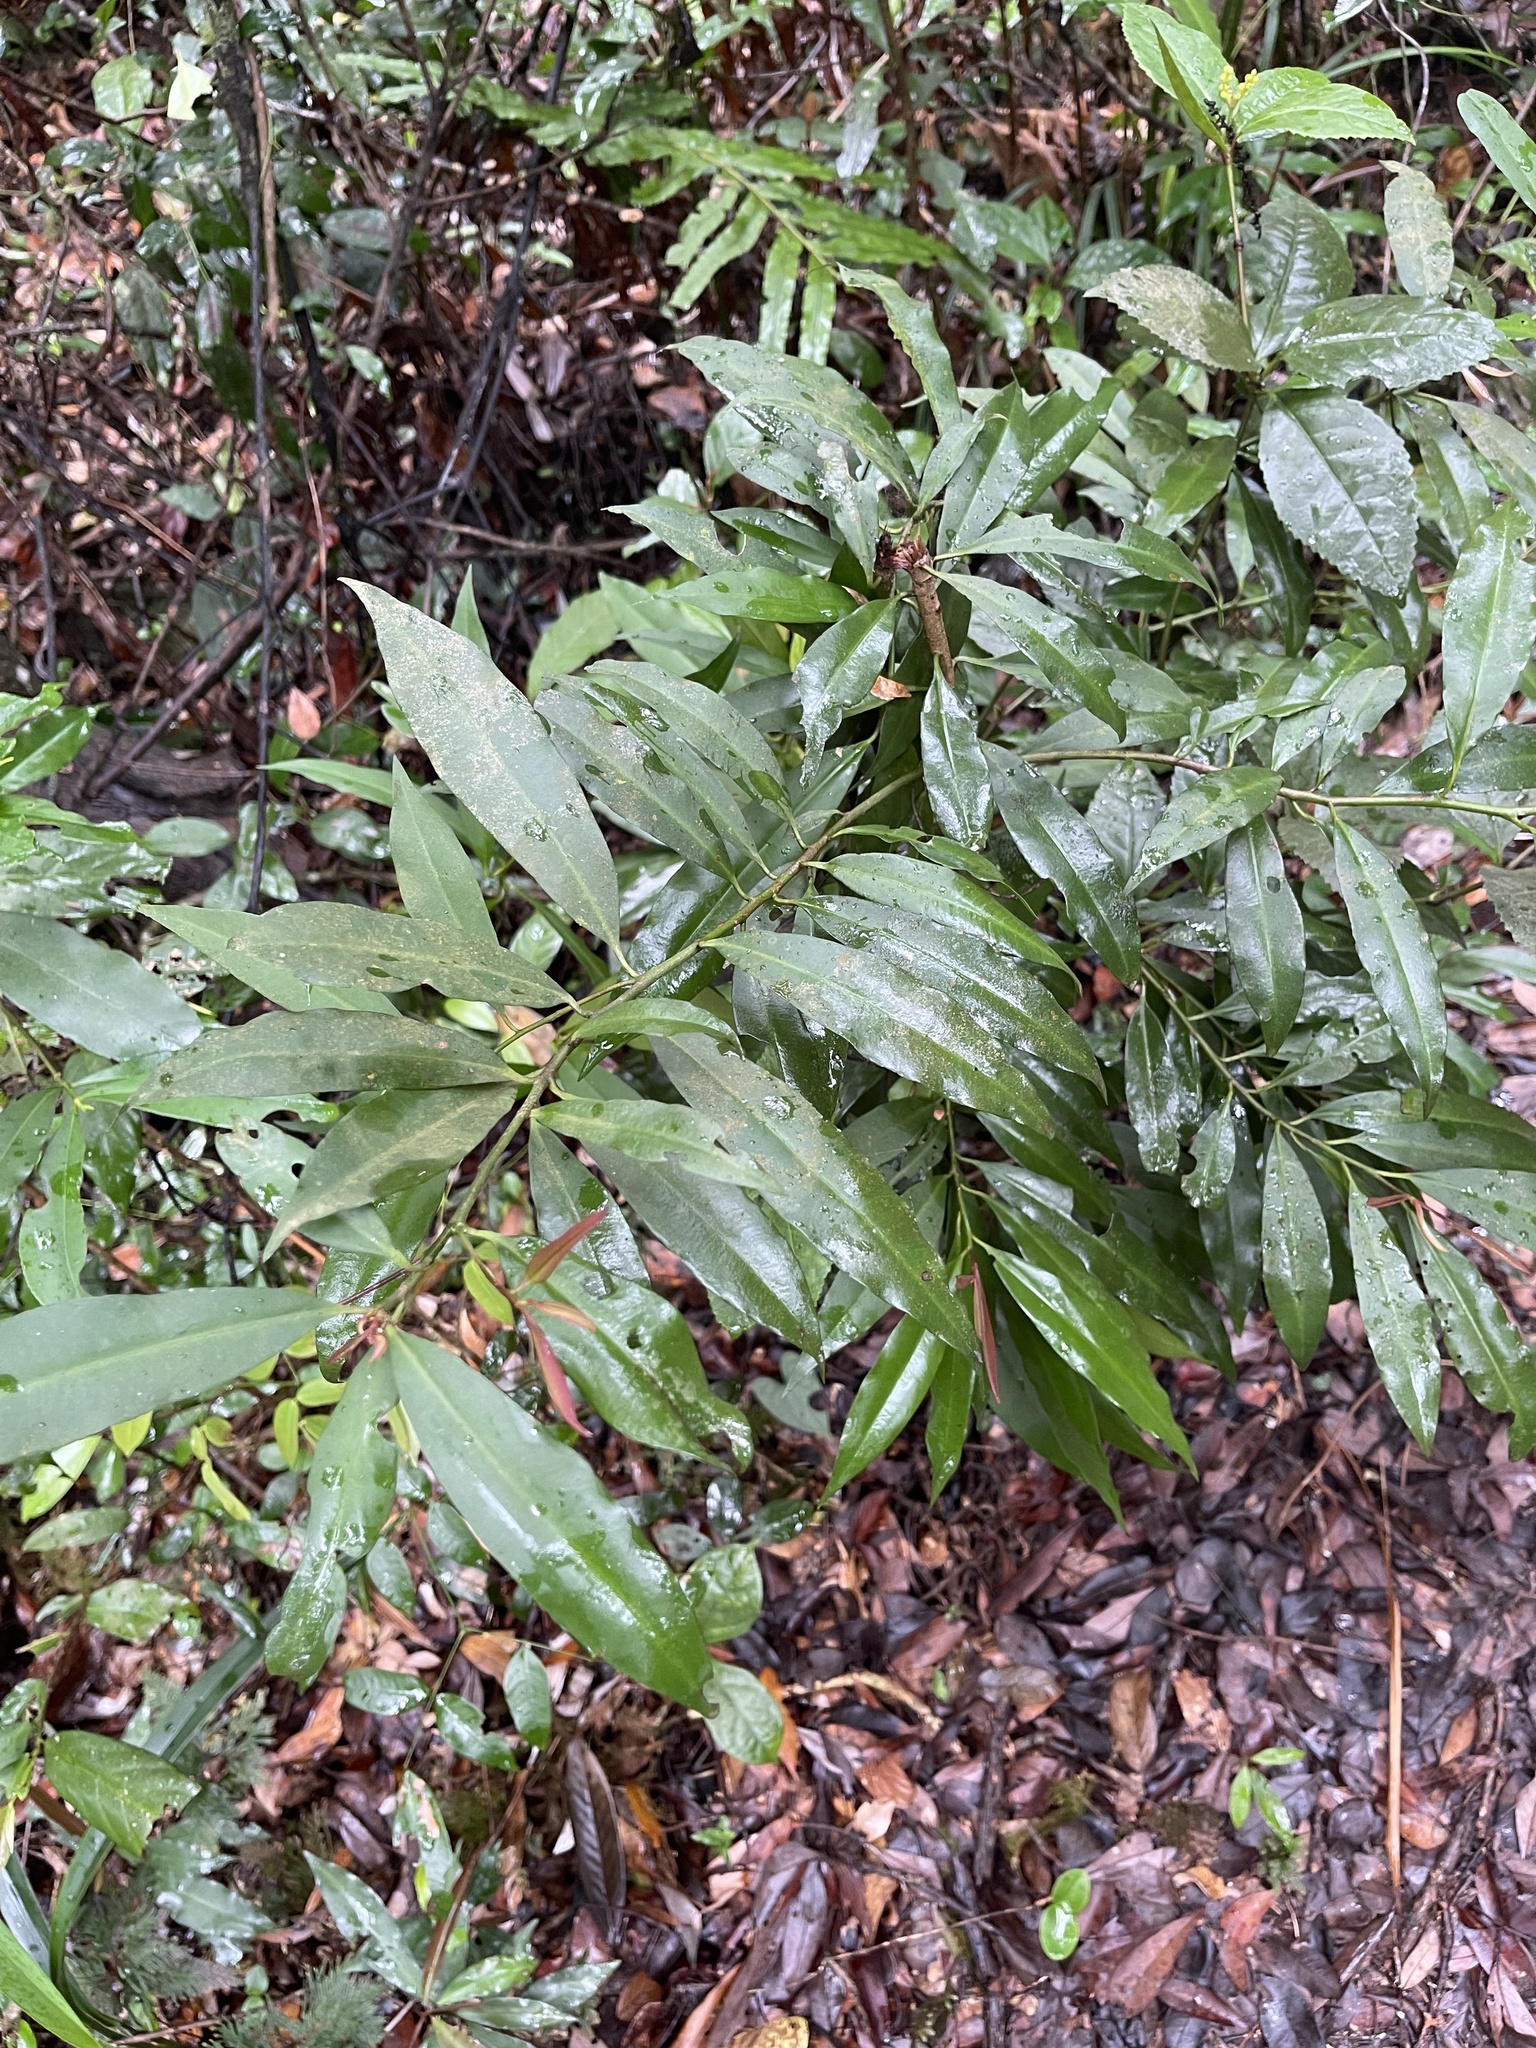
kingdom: Plantae
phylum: Tracheophyta
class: Magnoliopsida
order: Ericales
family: Primulaceae
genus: Ardisia
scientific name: Ardisia quinquegona
